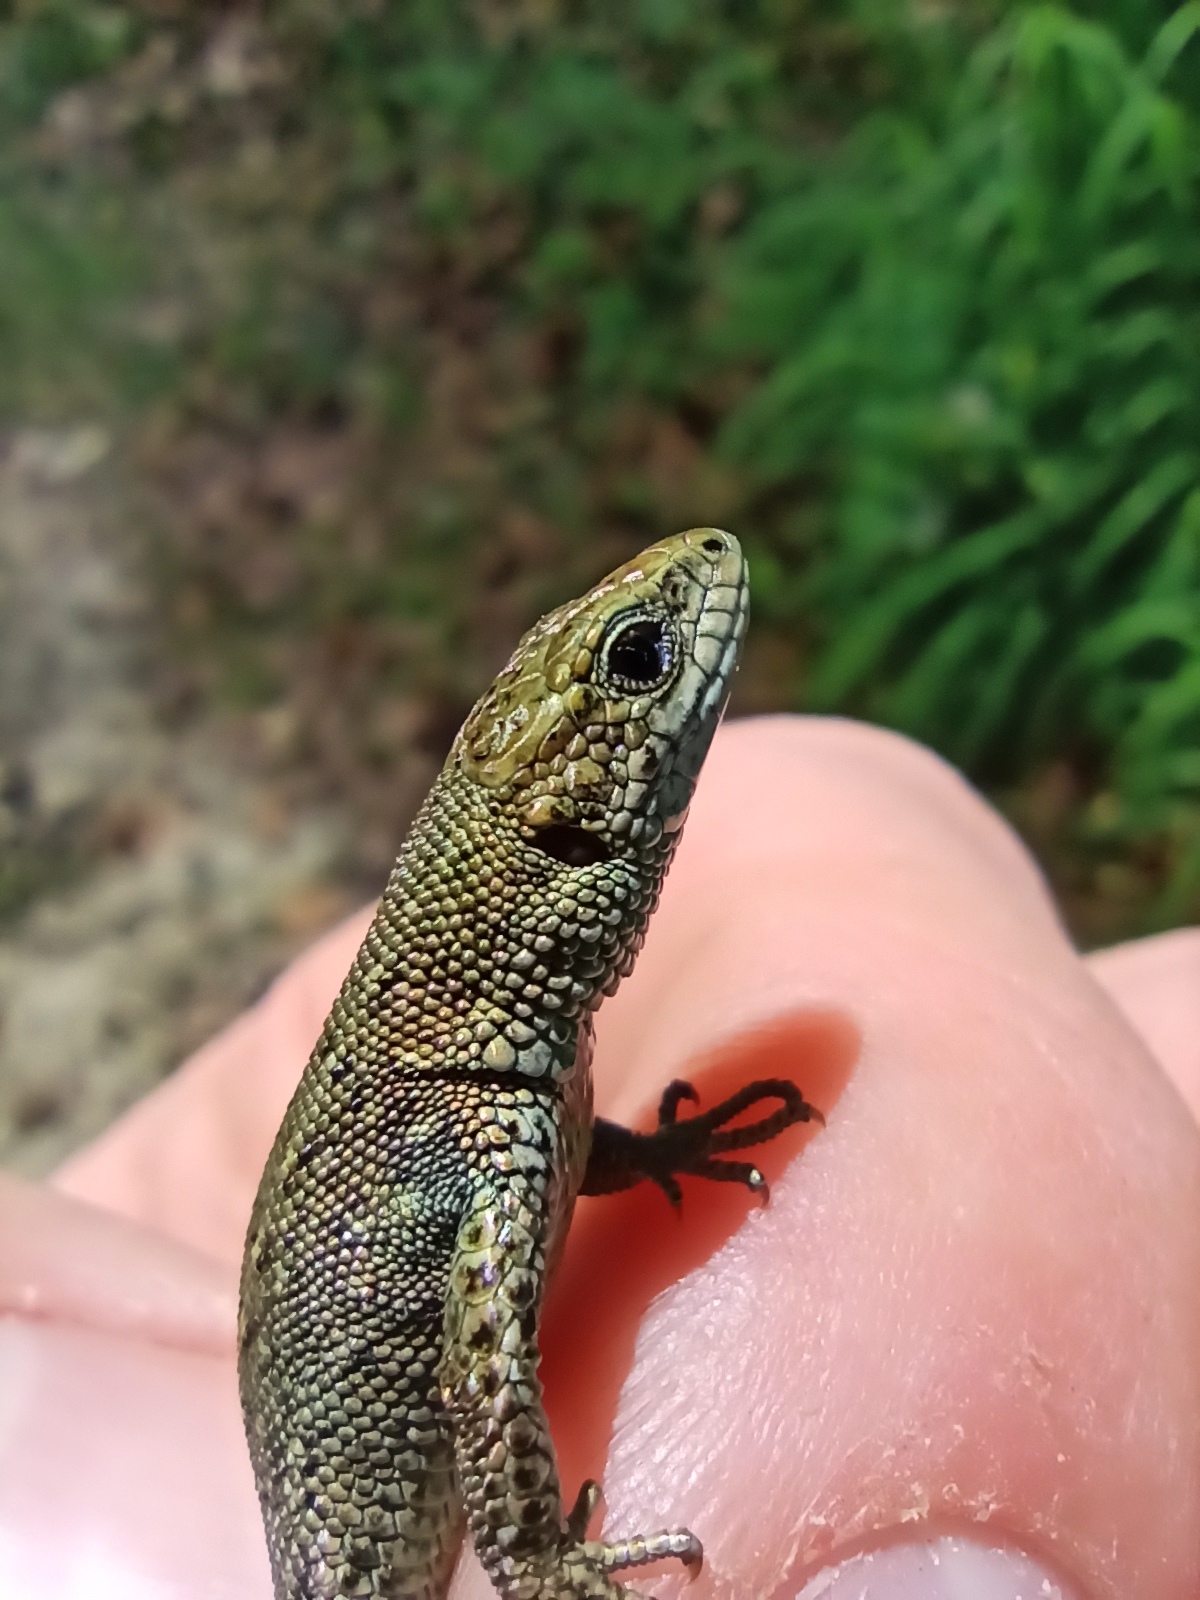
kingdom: Animalia
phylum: Chordata
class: Squamata
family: Lacertidae
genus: Zootoca
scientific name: Zootoca vivipara
